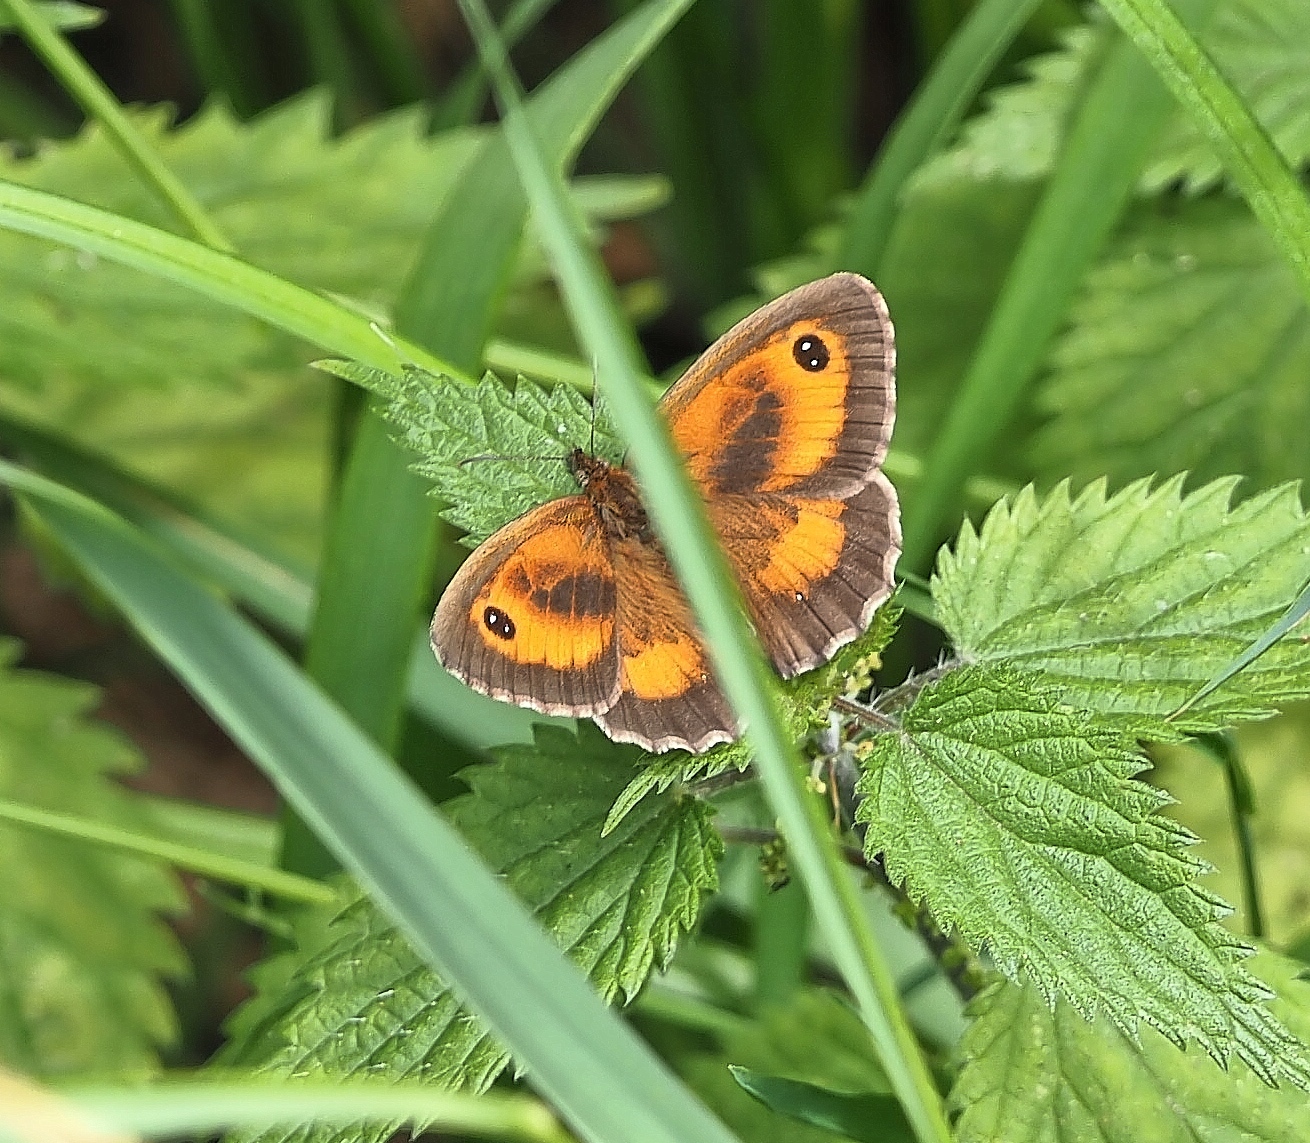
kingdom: Animalia
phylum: Arthropoda
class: Insecta
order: Lepidoptera
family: Nymphalidae
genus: Pyronia
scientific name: Pyronia tithonus
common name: Gatekeeper
